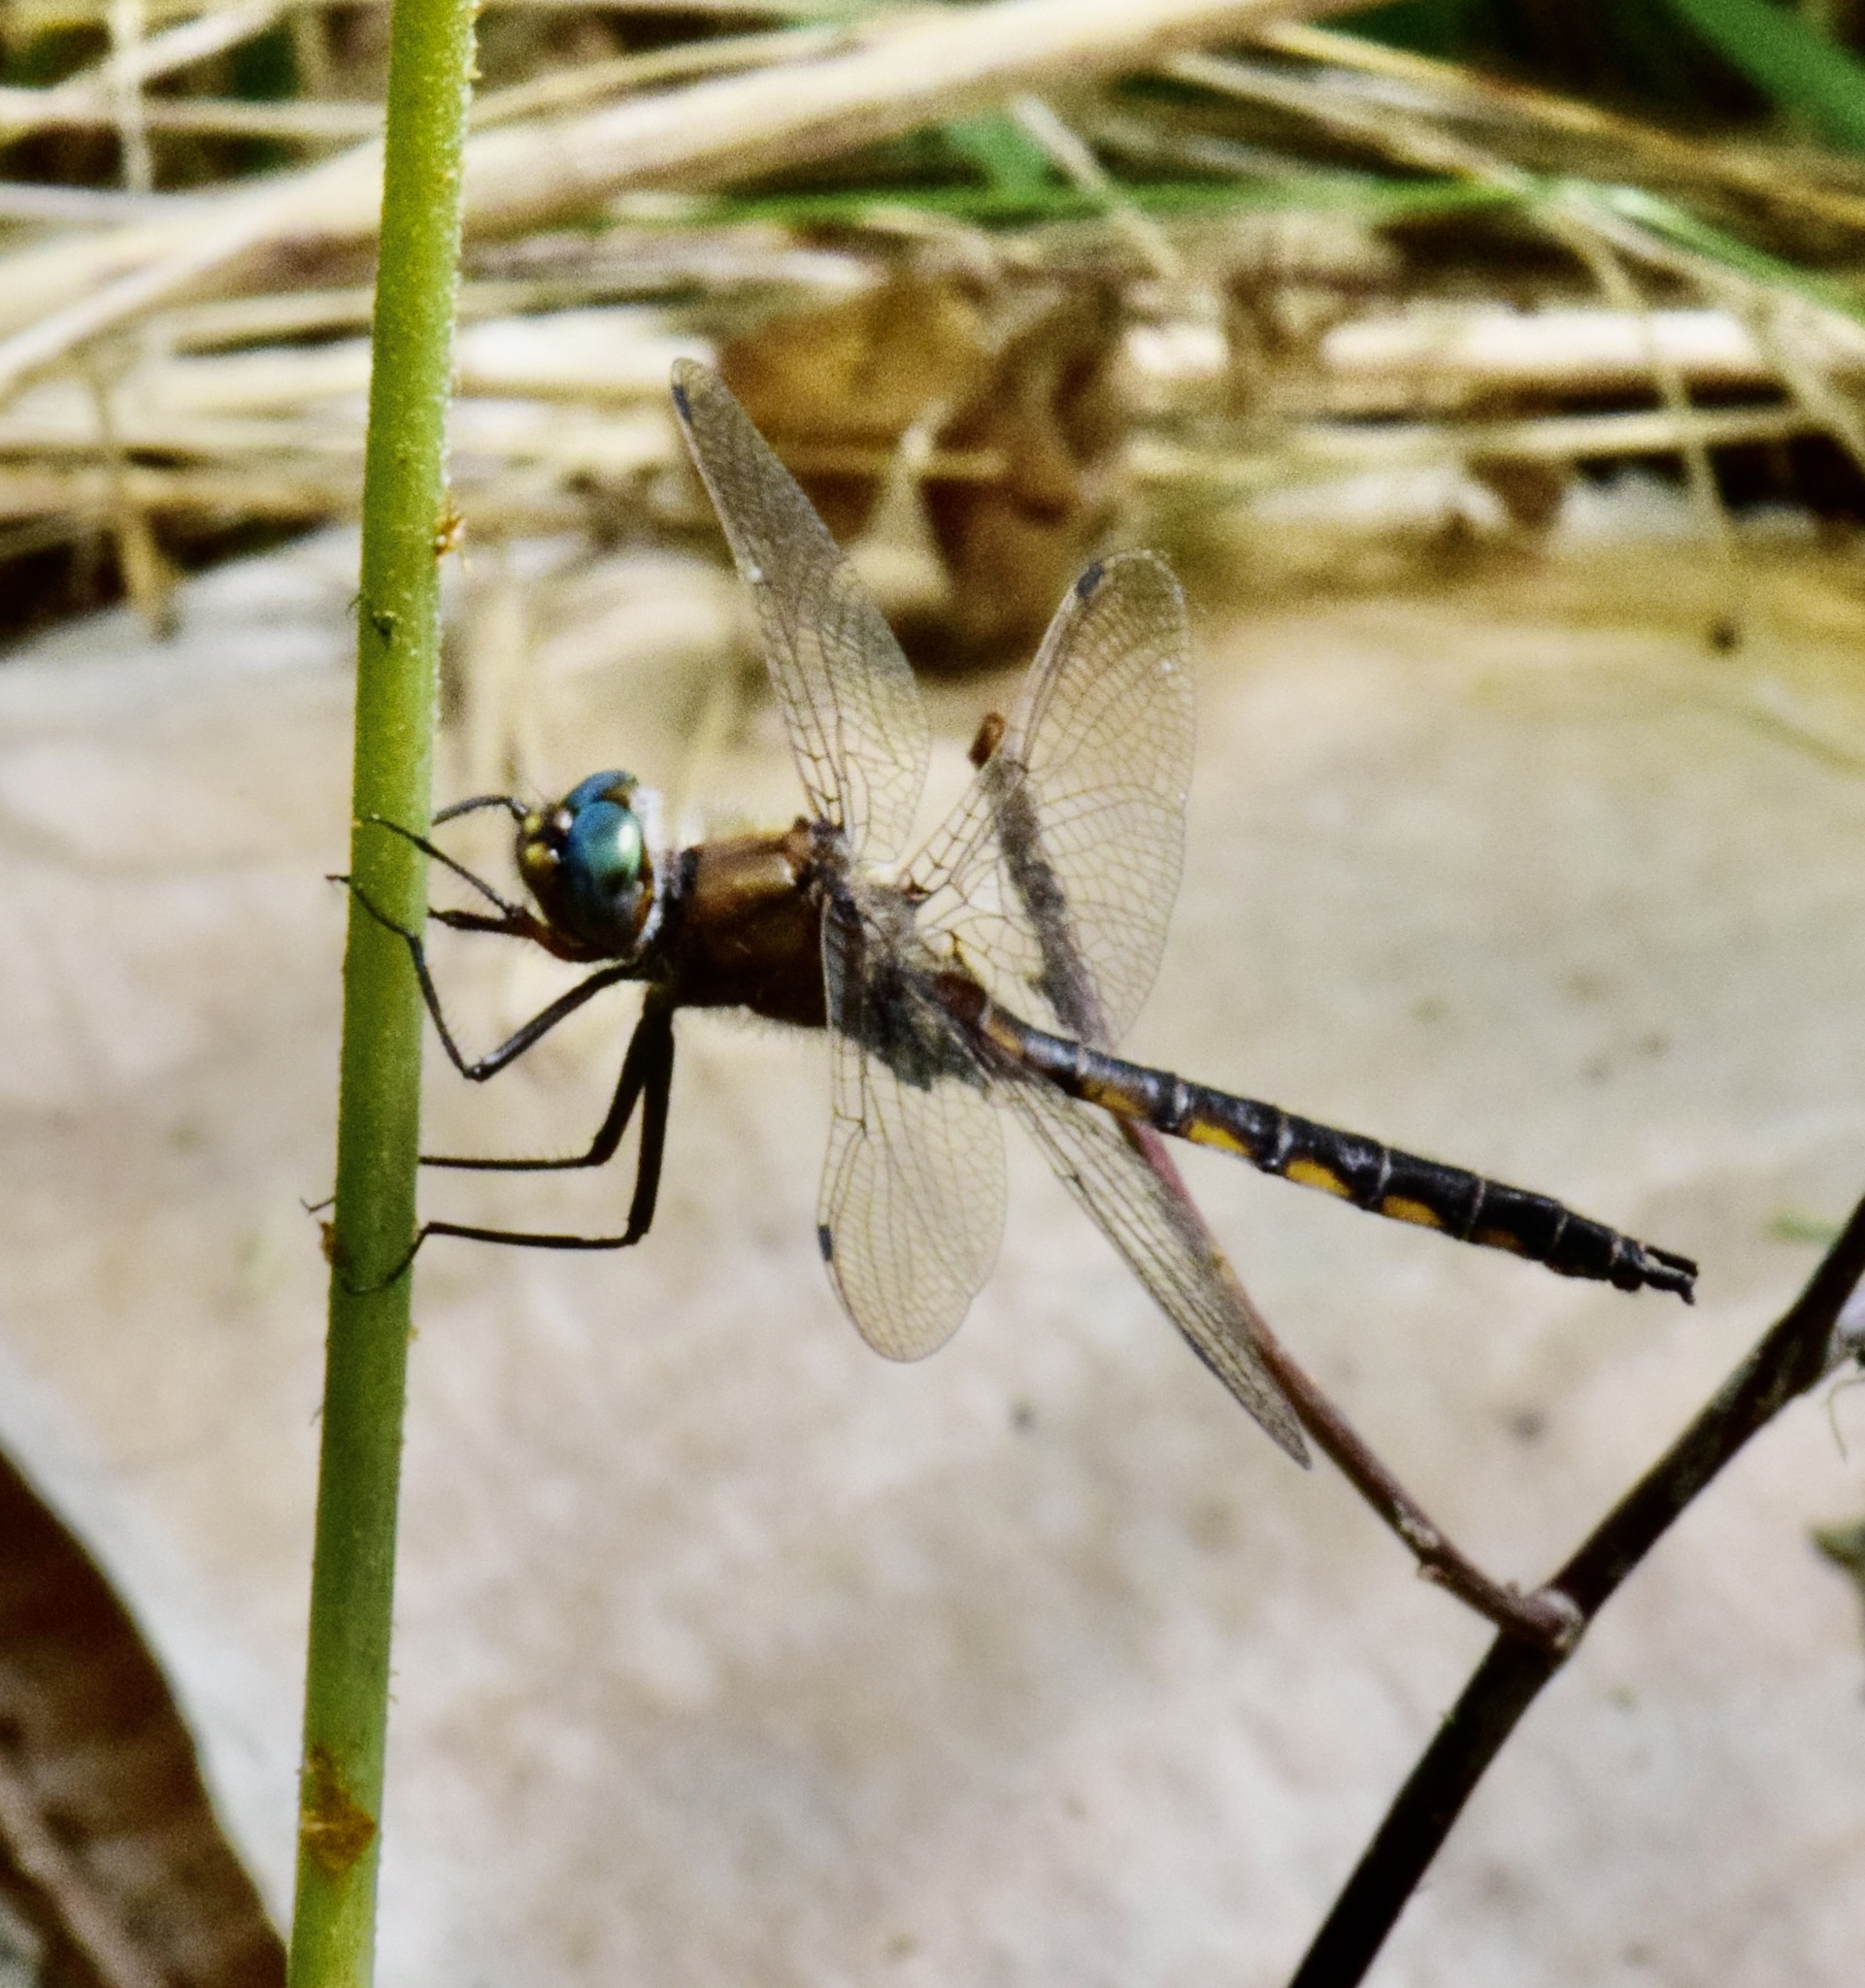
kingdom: Animalia
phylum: Arthropoda
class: Insecta
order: Odonata
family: Corduliidae
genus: Epitheca
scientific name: Epitheca canis
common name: Beaverpond baskettail
